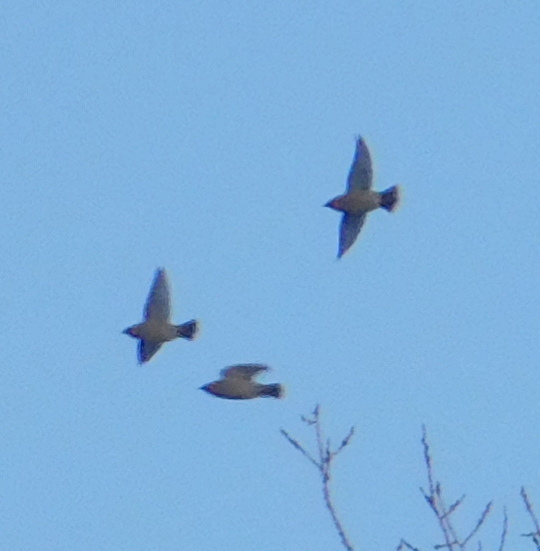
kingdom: Animalia
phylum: Chordata
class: Aves
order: Passeriformes
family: Bombycillidae
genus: Bombycilla
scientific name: Bombycilla garrulus
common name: Bohemian waxwing
